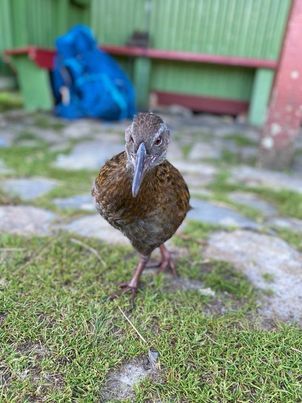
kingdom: Animalia
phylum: Chordata
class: Aves
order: Gruiformes
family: Rallidae
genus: Gallirallus
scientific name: Gallirallus australis
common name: Weka
